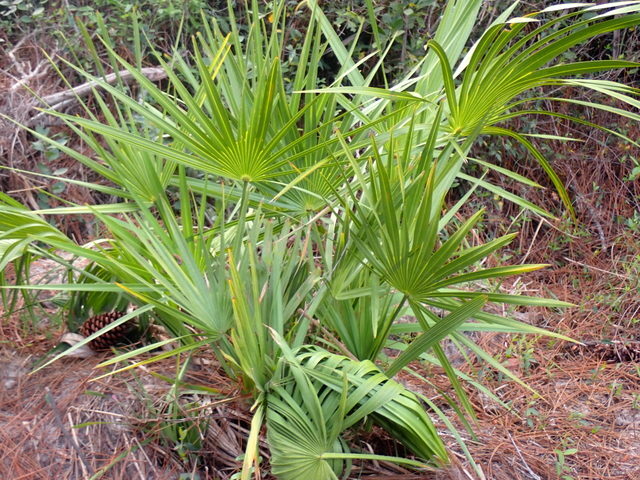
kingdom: Plantae
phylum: Tracheophyta
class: Liliopsida
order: Arecales
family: Arecaceae
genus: Serenoa
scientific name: Serenoa repens
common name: Saw-palmetto
